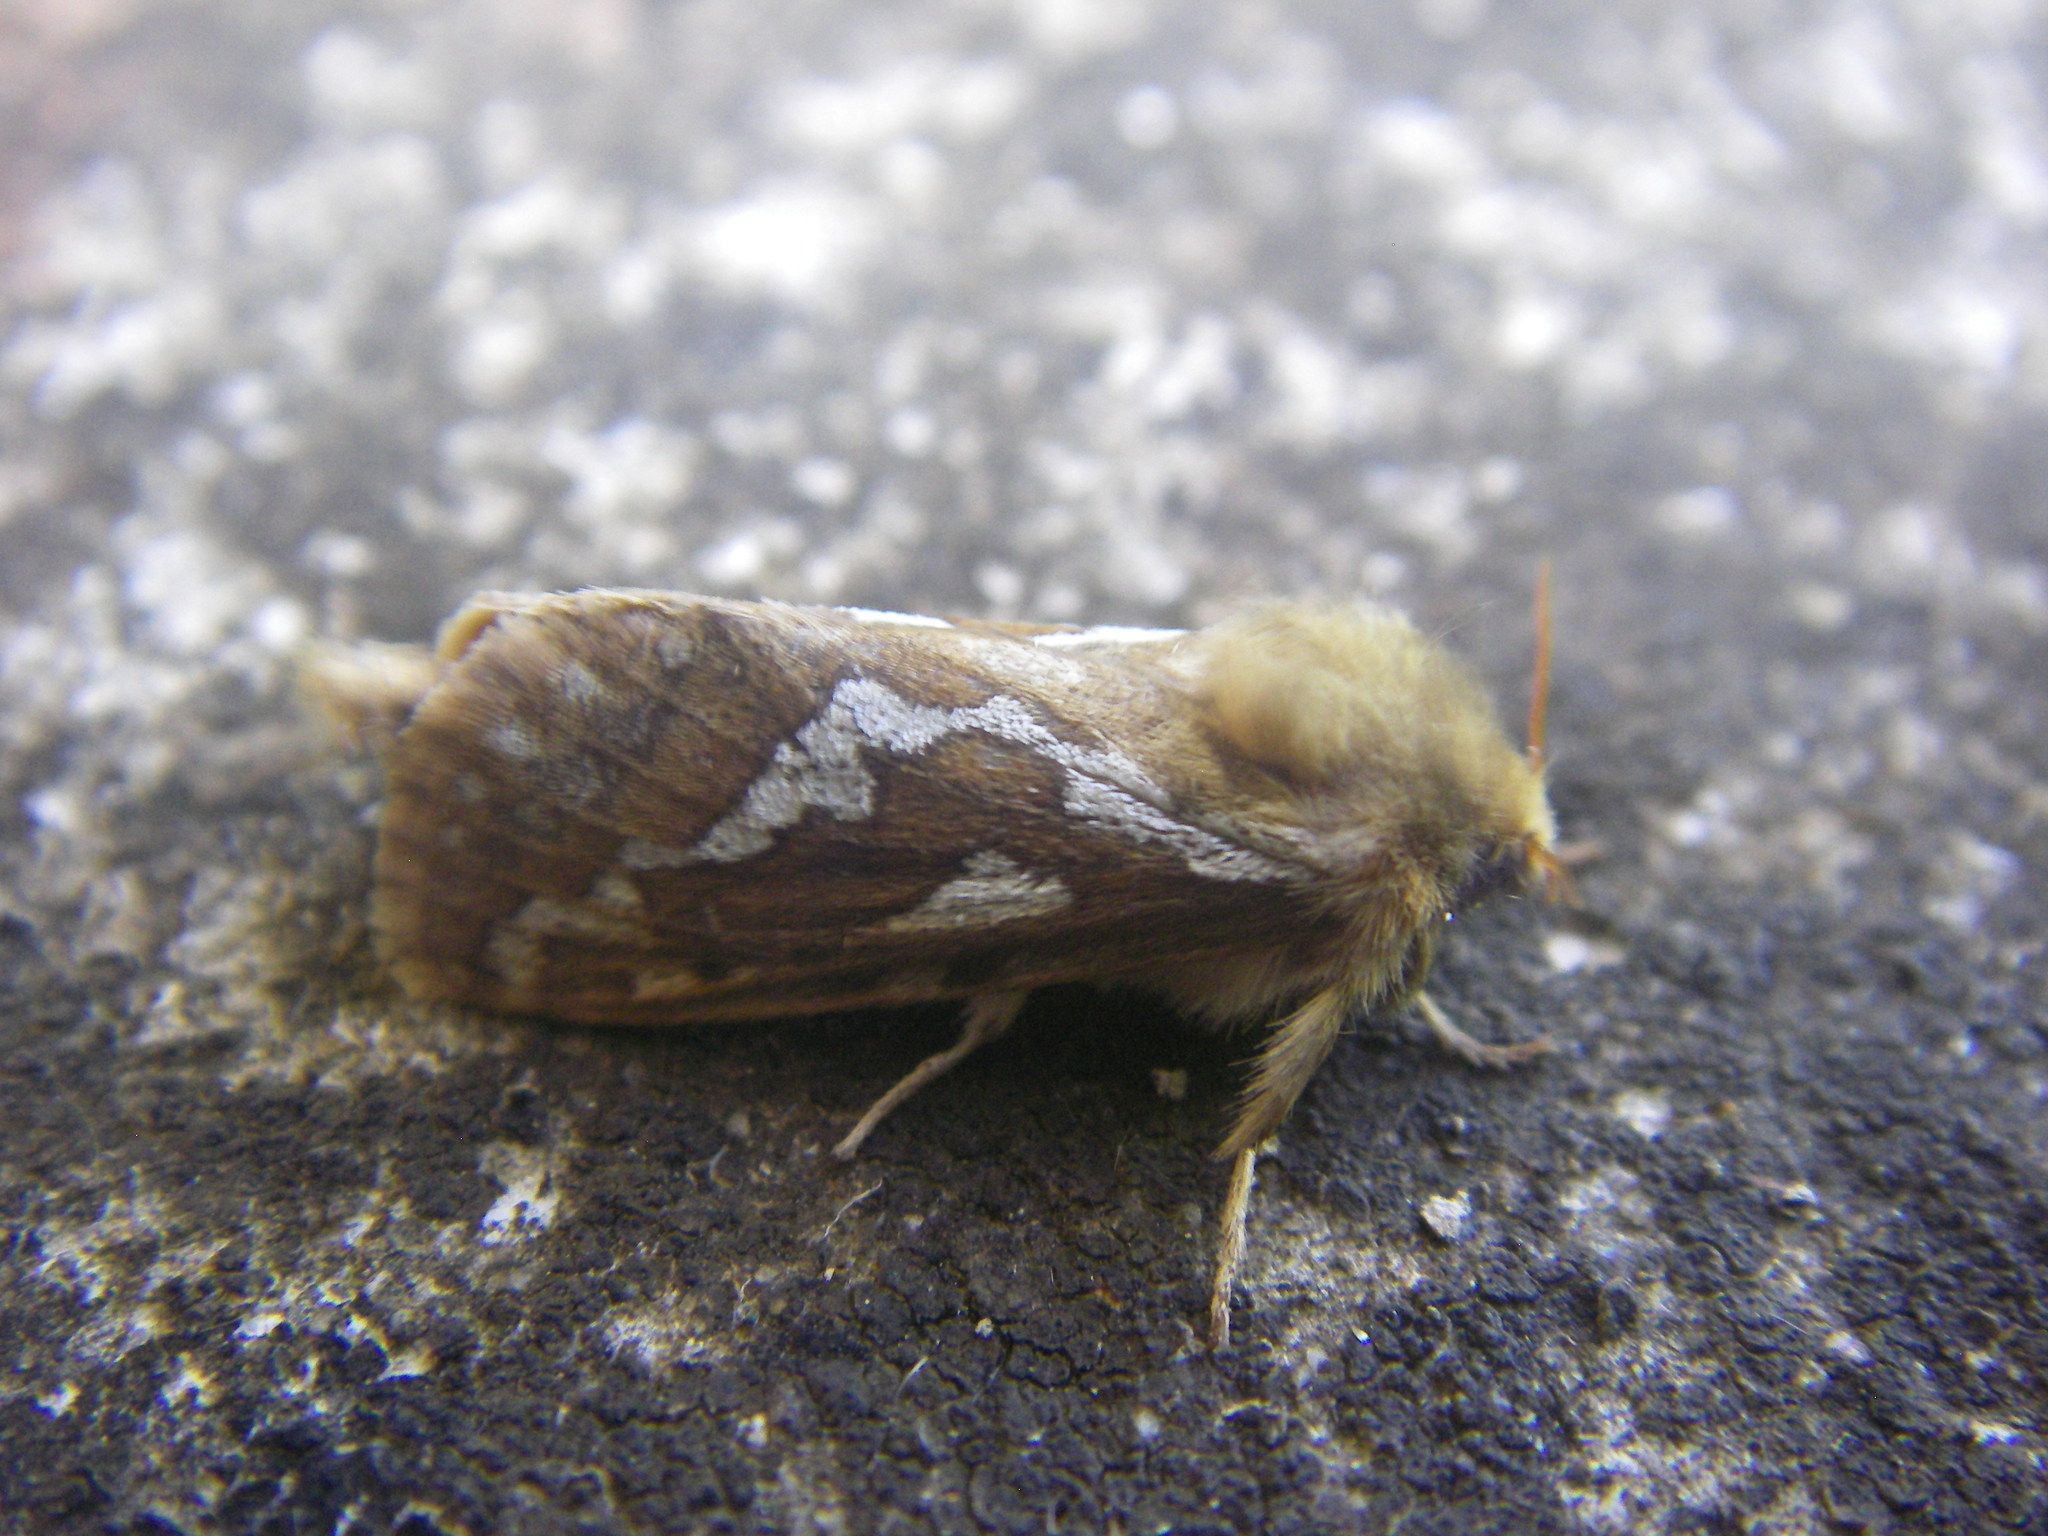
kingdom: Animalia
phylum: Arthropoda
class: Insecta
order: Lepidoptera
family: Hepialidae
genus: Korscheltellus
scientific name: Korscheltellus lupulina
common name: Common swift
